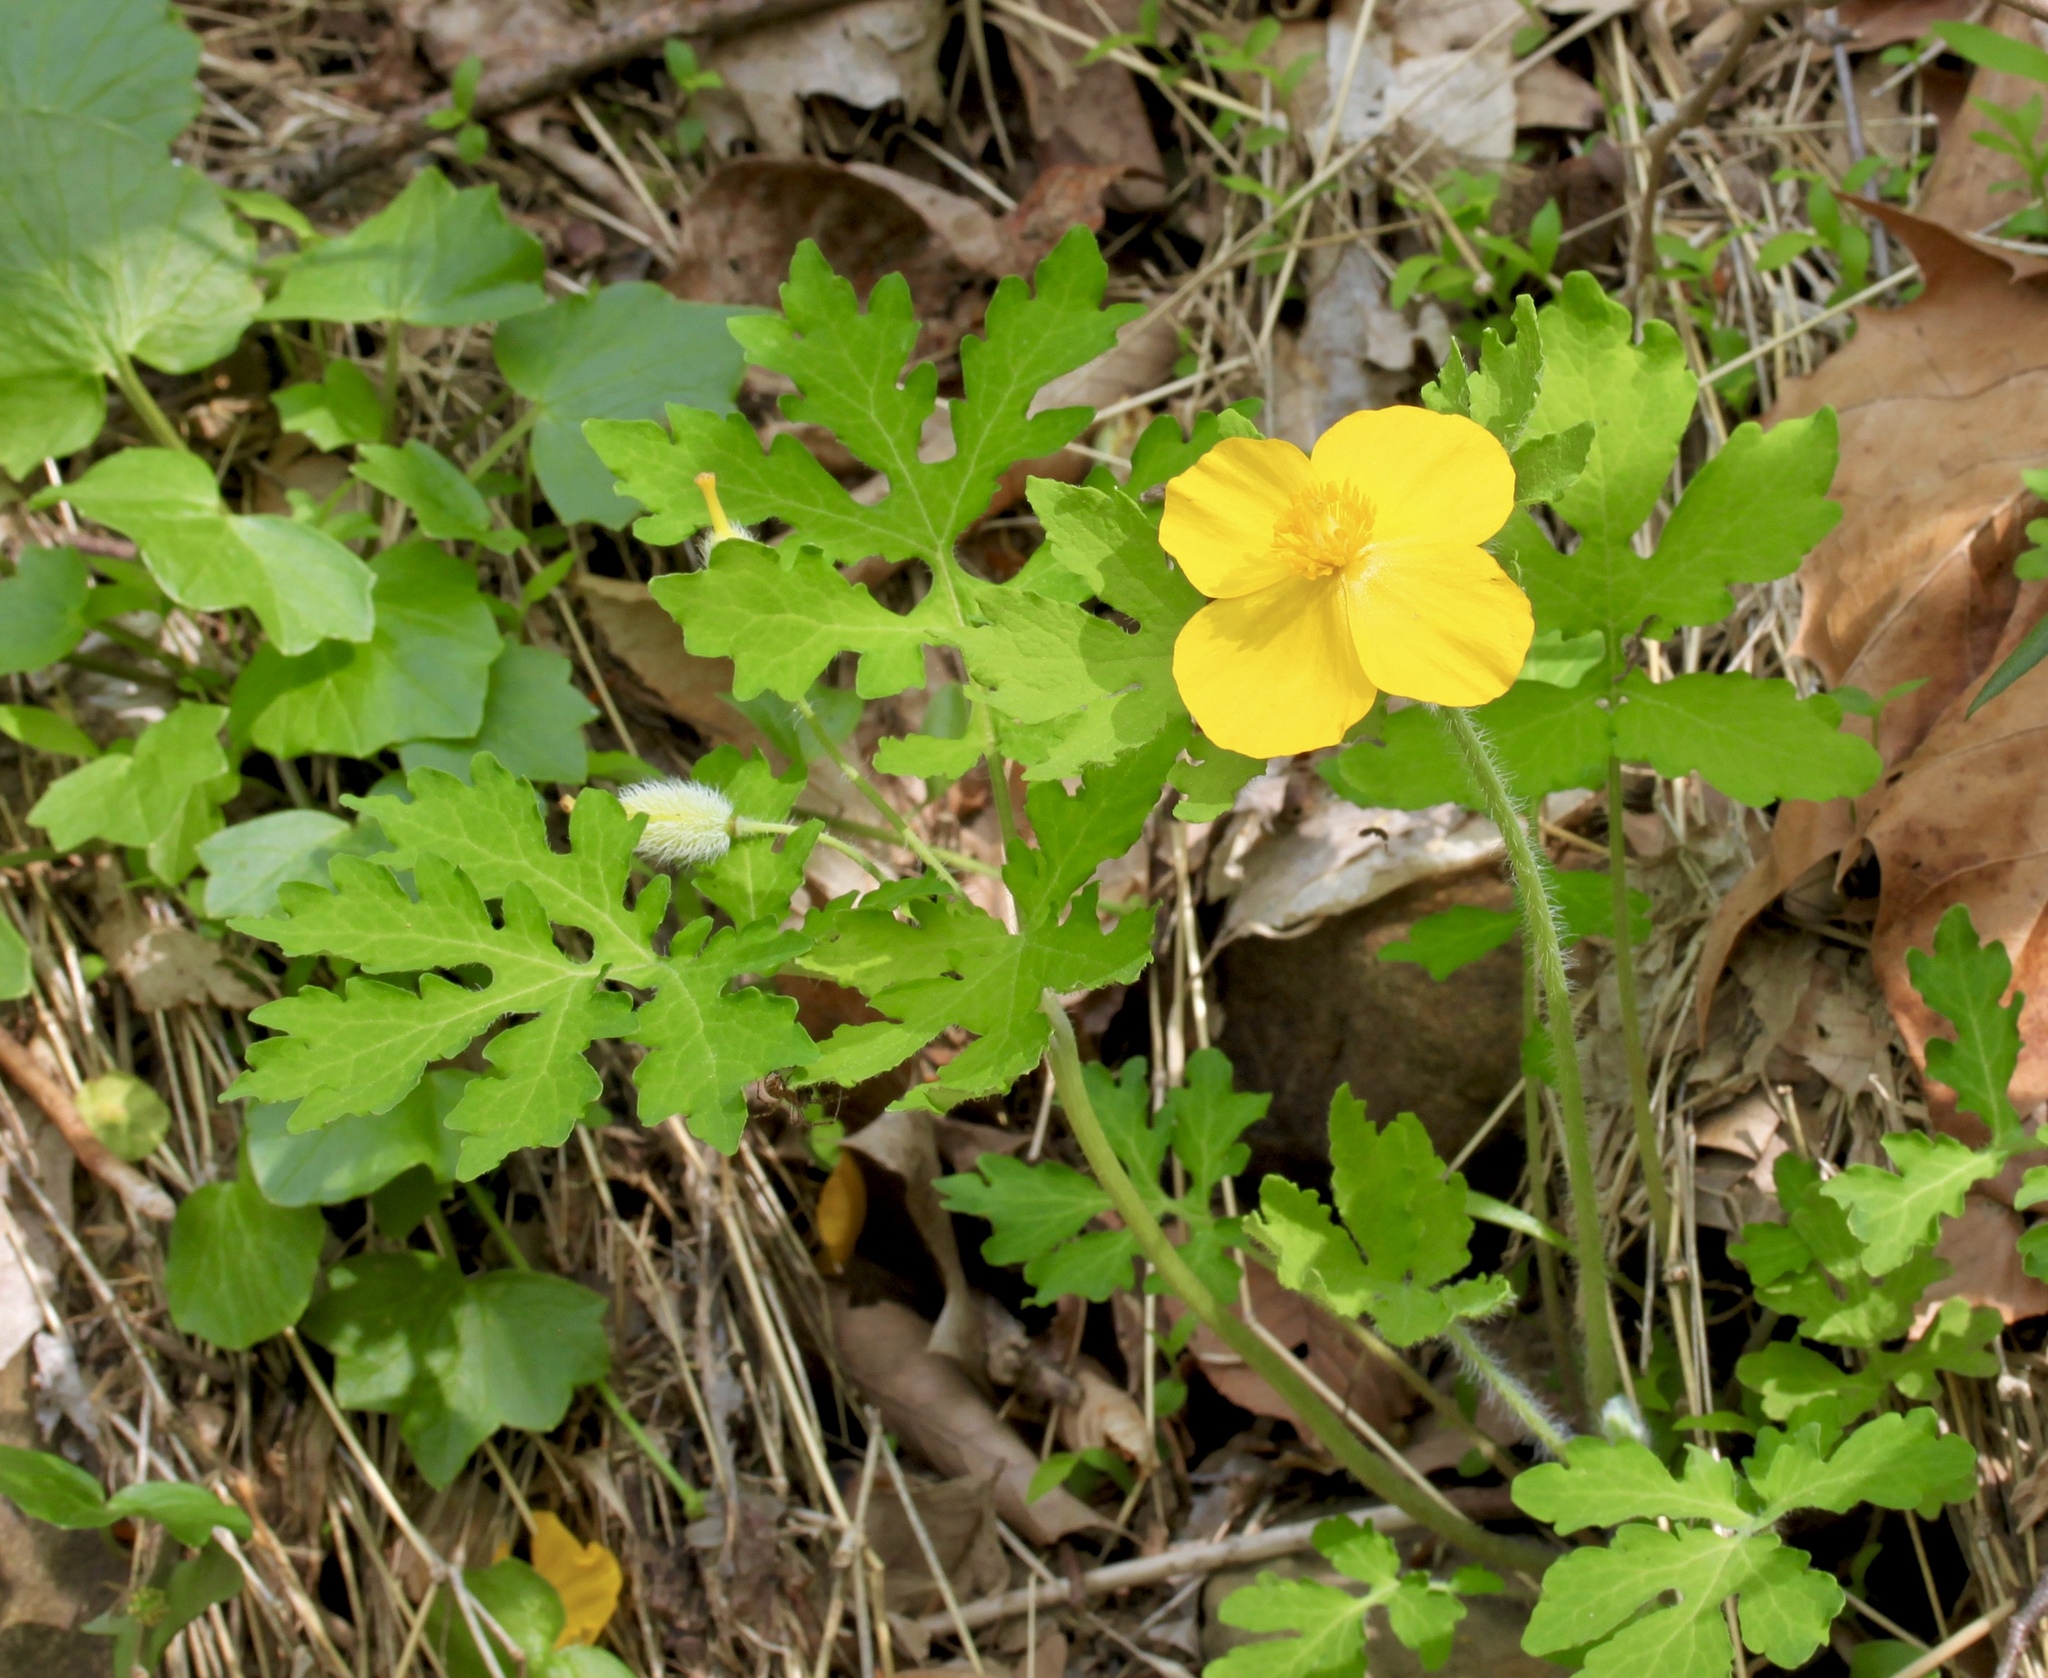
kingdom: Plantae
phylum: Tracheophyta
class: Magnoliopsida
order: Ranunculales
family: Papaveraceae
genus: Stylophorum
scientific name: Stylophorum diphyllum
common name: Celandine poppy
